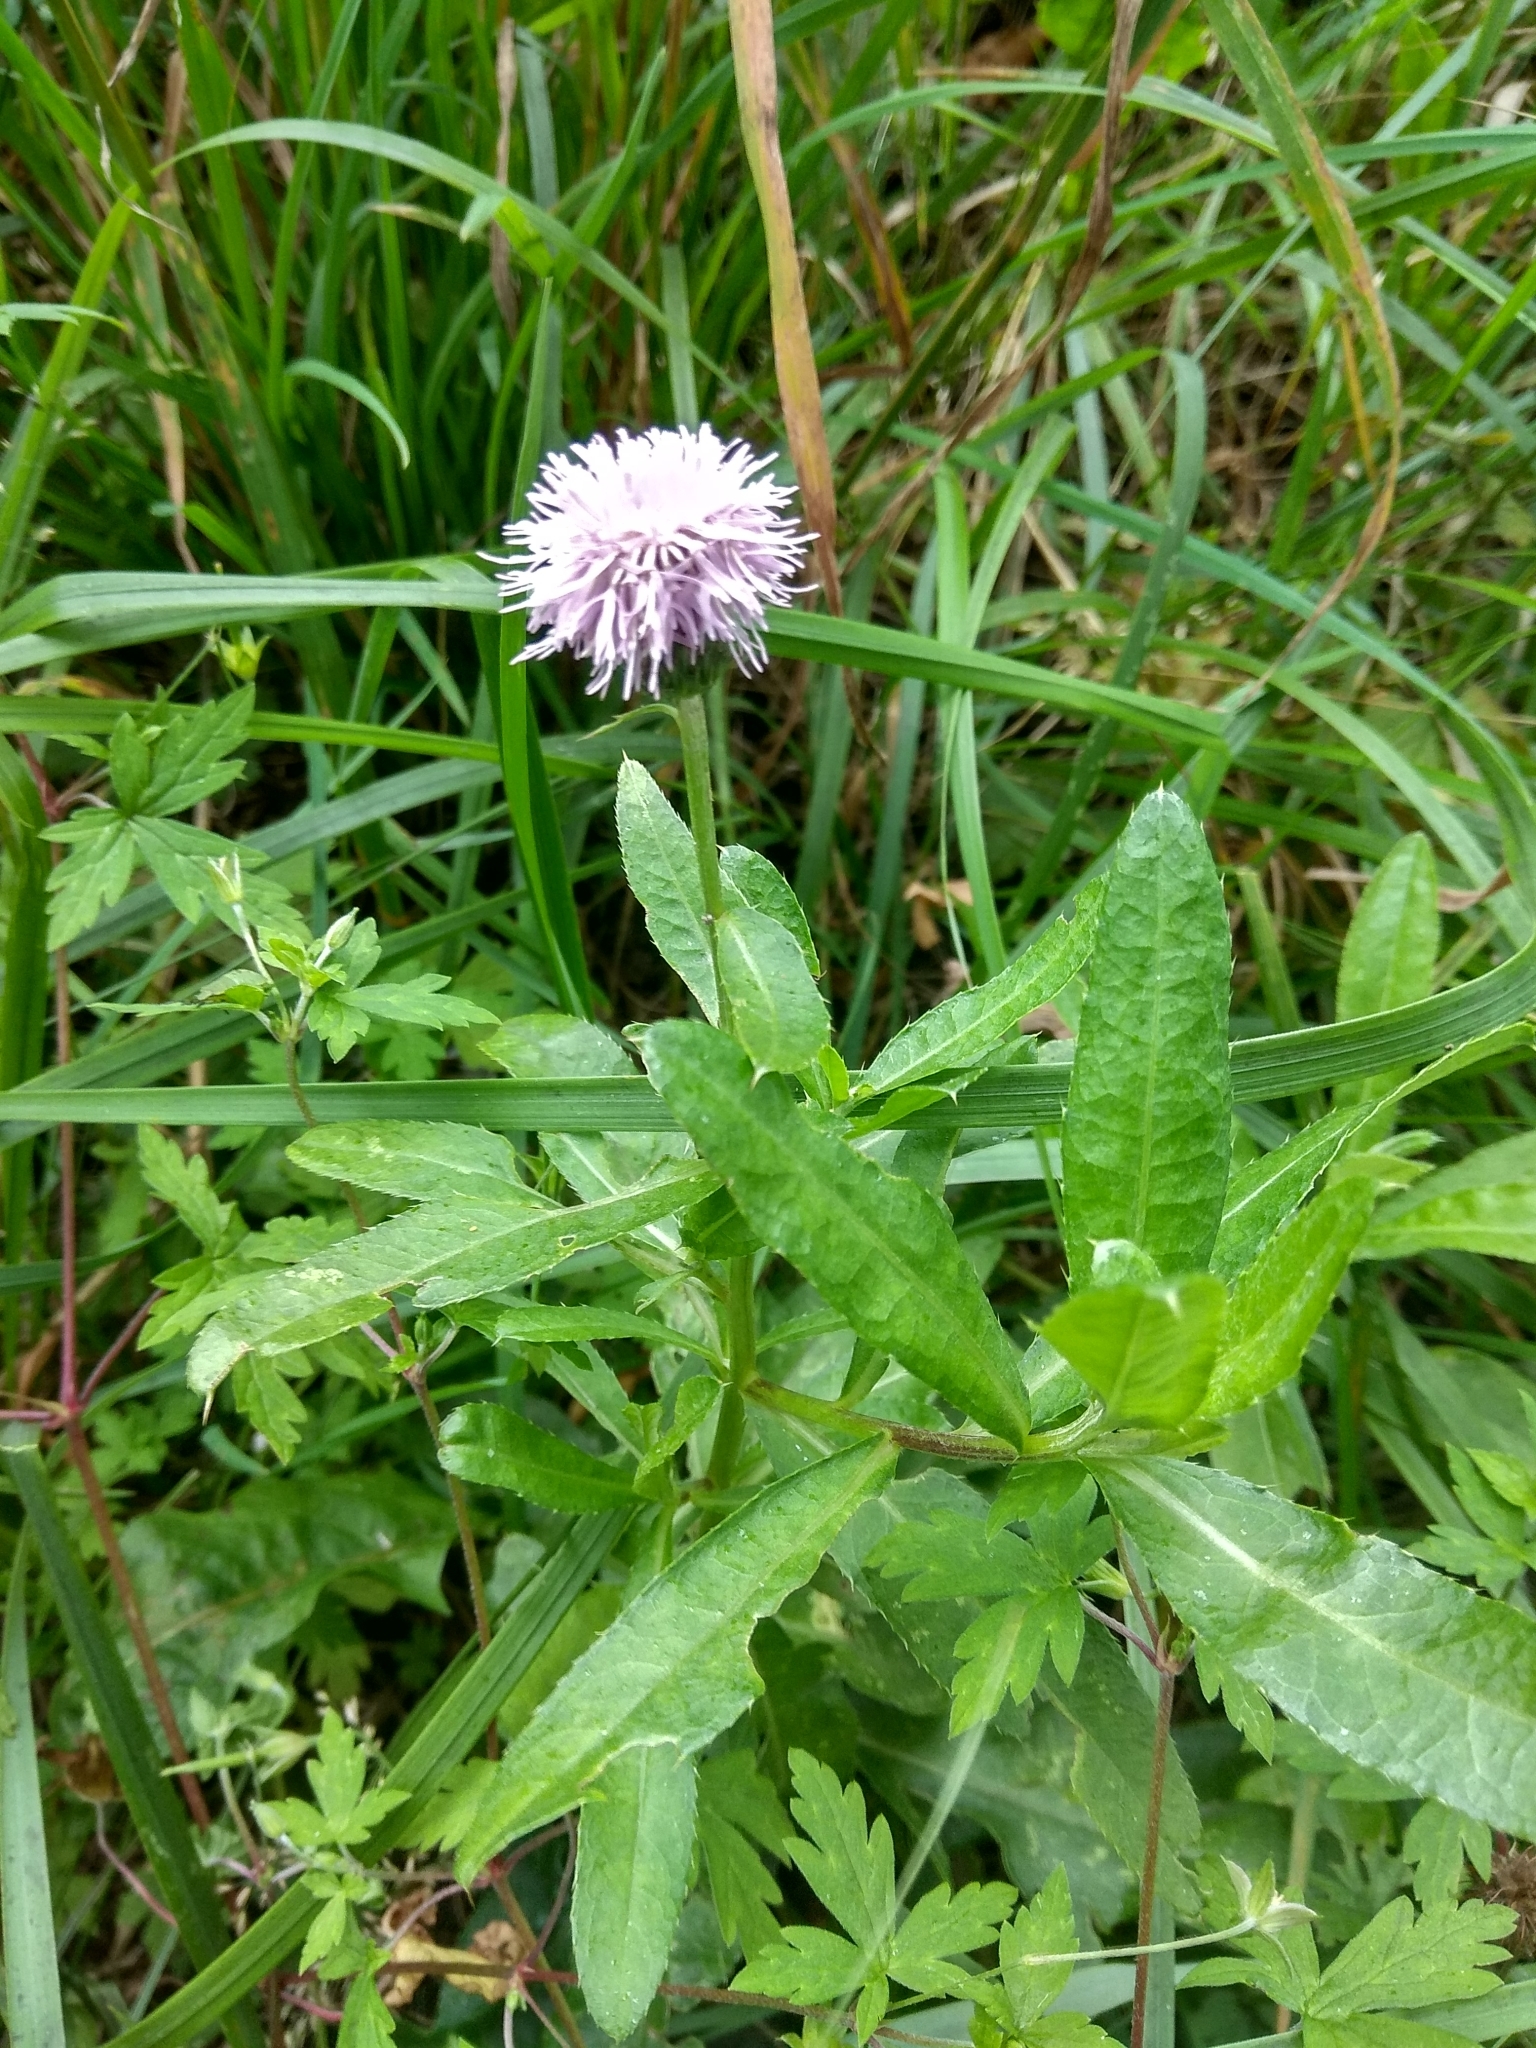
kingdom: Plantae
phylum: Tracheophyta
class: Magnoliopsida
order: Asterales
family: Asteraceae
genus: Cirsium
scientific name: Cirsium arvense
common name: Creeping thistle
